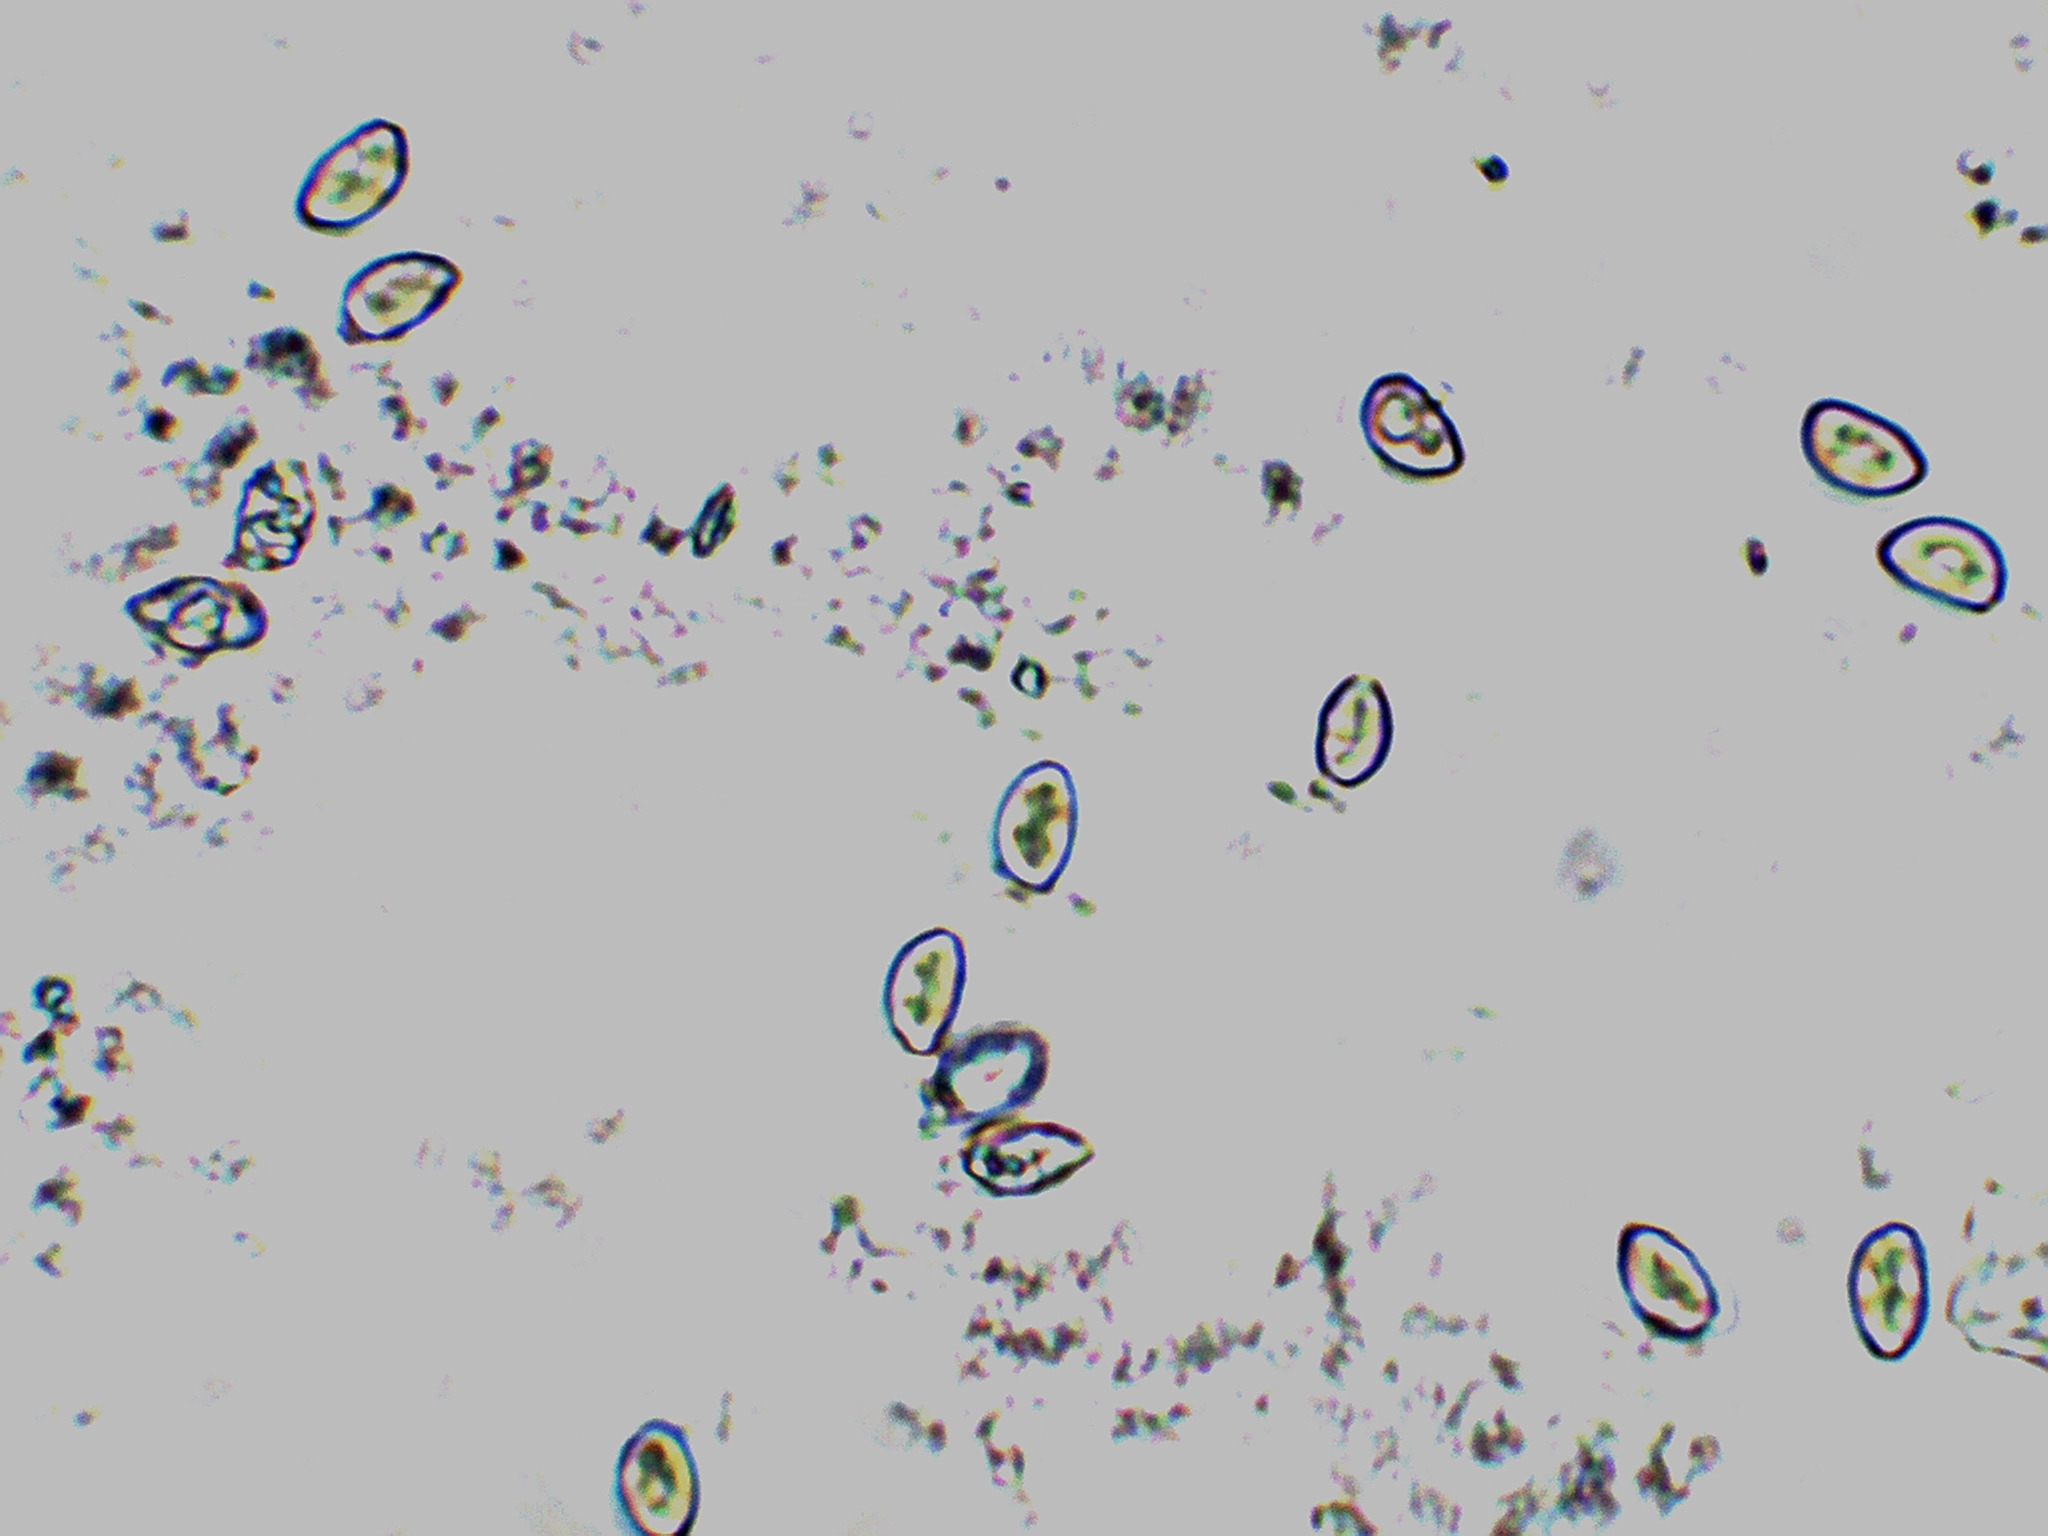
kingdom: Fungi
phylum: Basidiomycota
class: Agaricomycetes
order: Agaricales
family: Inocybaceae
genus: Inocybe
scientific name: Inocybe subdestricta
